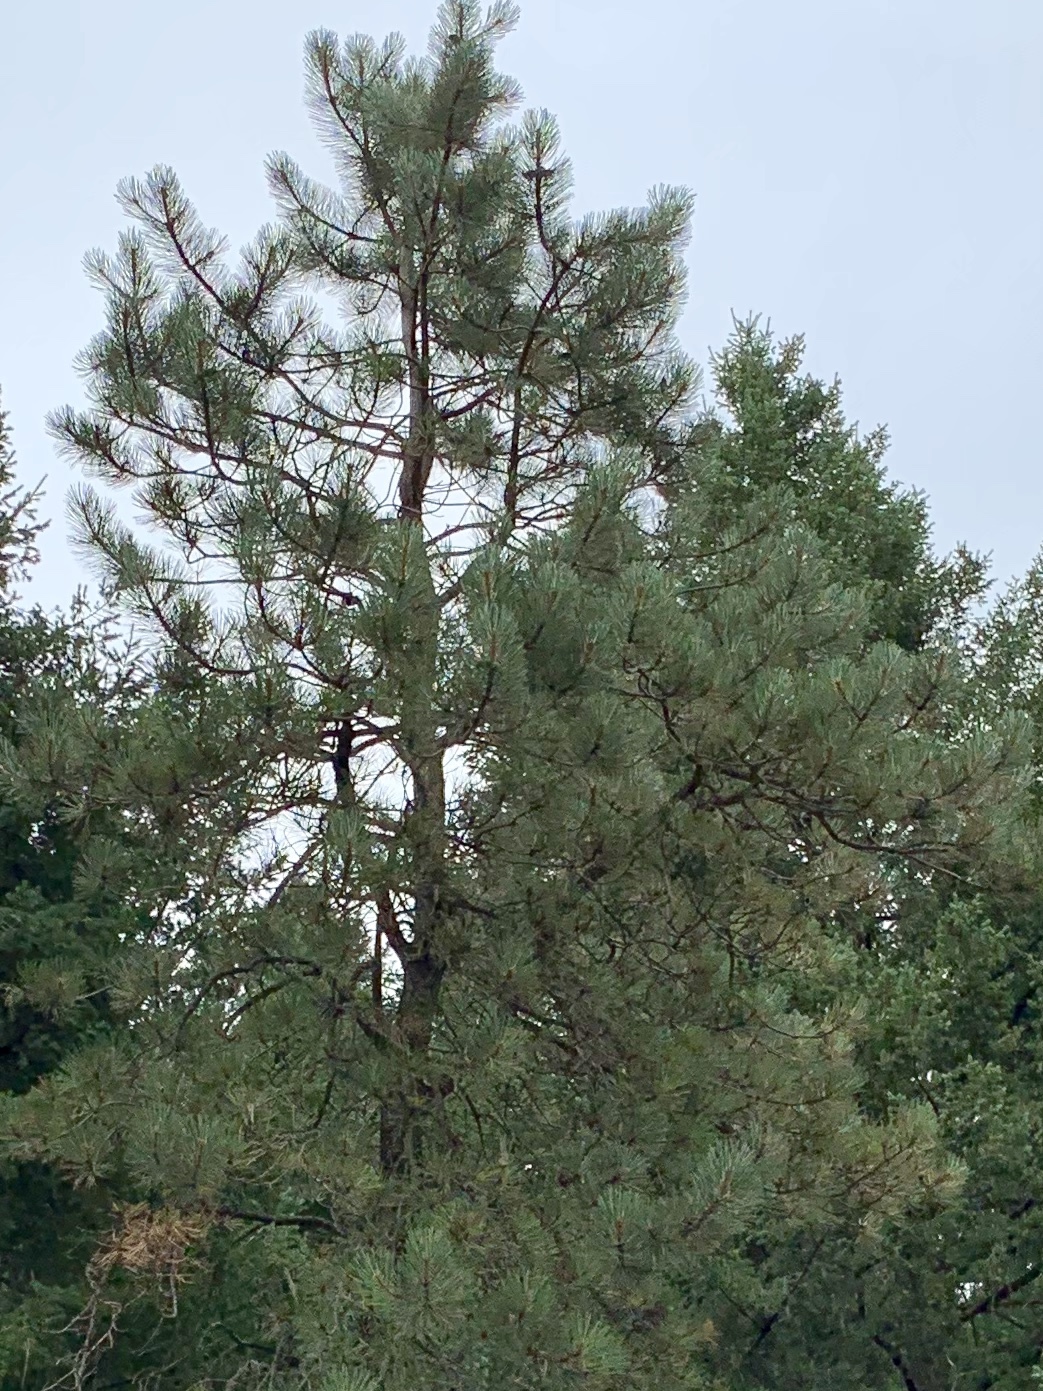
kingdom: Plantae
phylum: Tracheophyta
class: Pinopsida
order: Pinales
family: Pinaceae
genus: Pinus
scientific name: Pinus ponderosa
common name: Western yellow-pine
